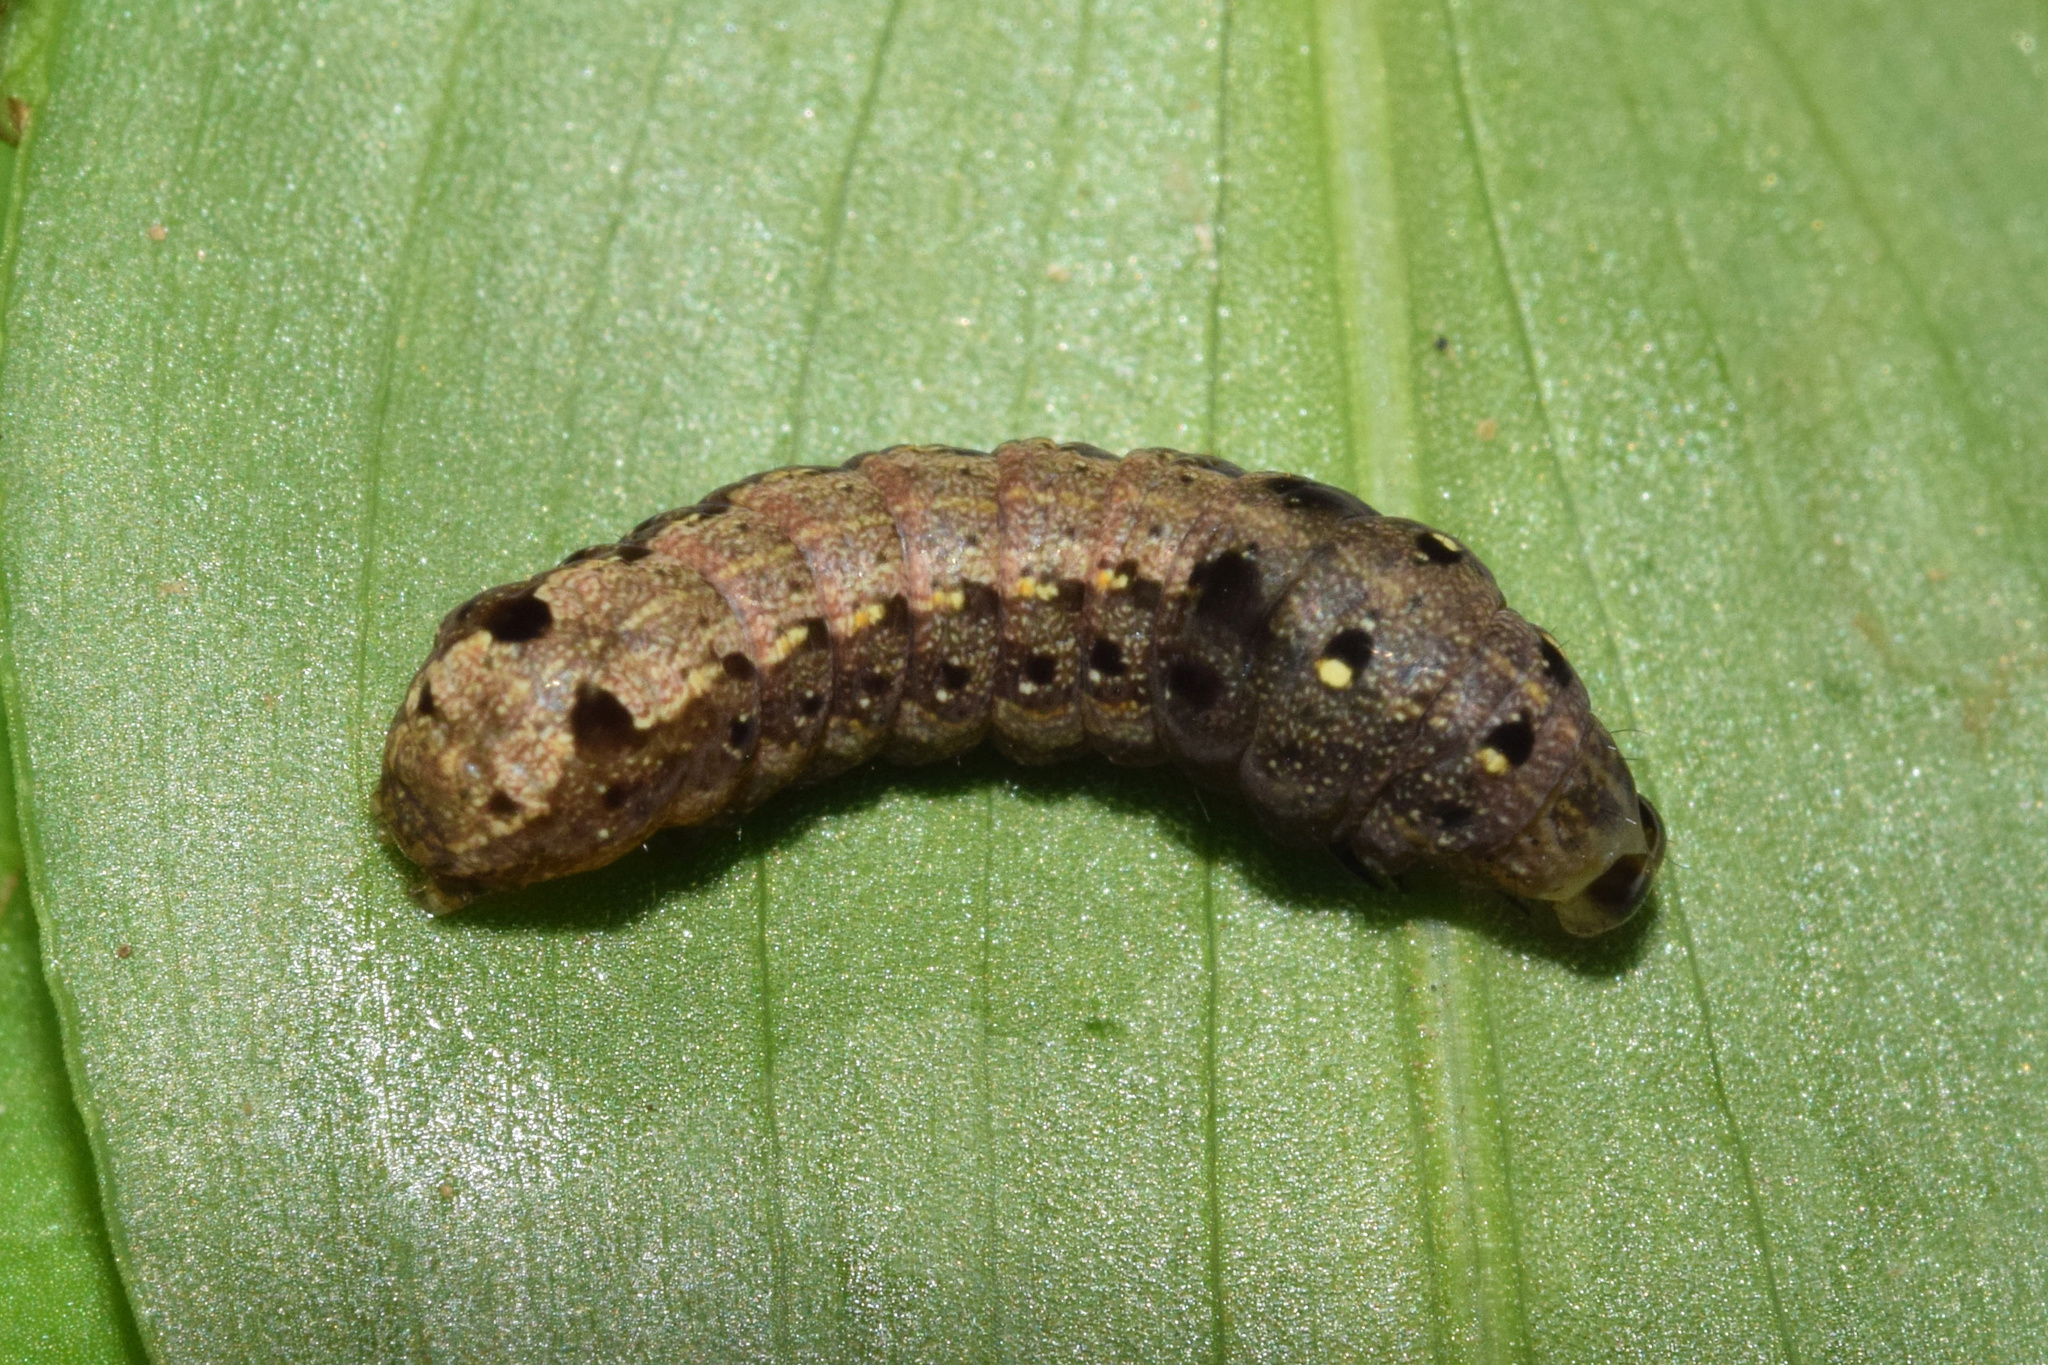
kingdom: Animalia
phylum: Arthropoda
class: Insecta
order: Lepidoptera
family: Noctuidae
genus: Spodoptera
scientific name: Spodoptera littoralis
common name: Egyptian cotton leafworm
